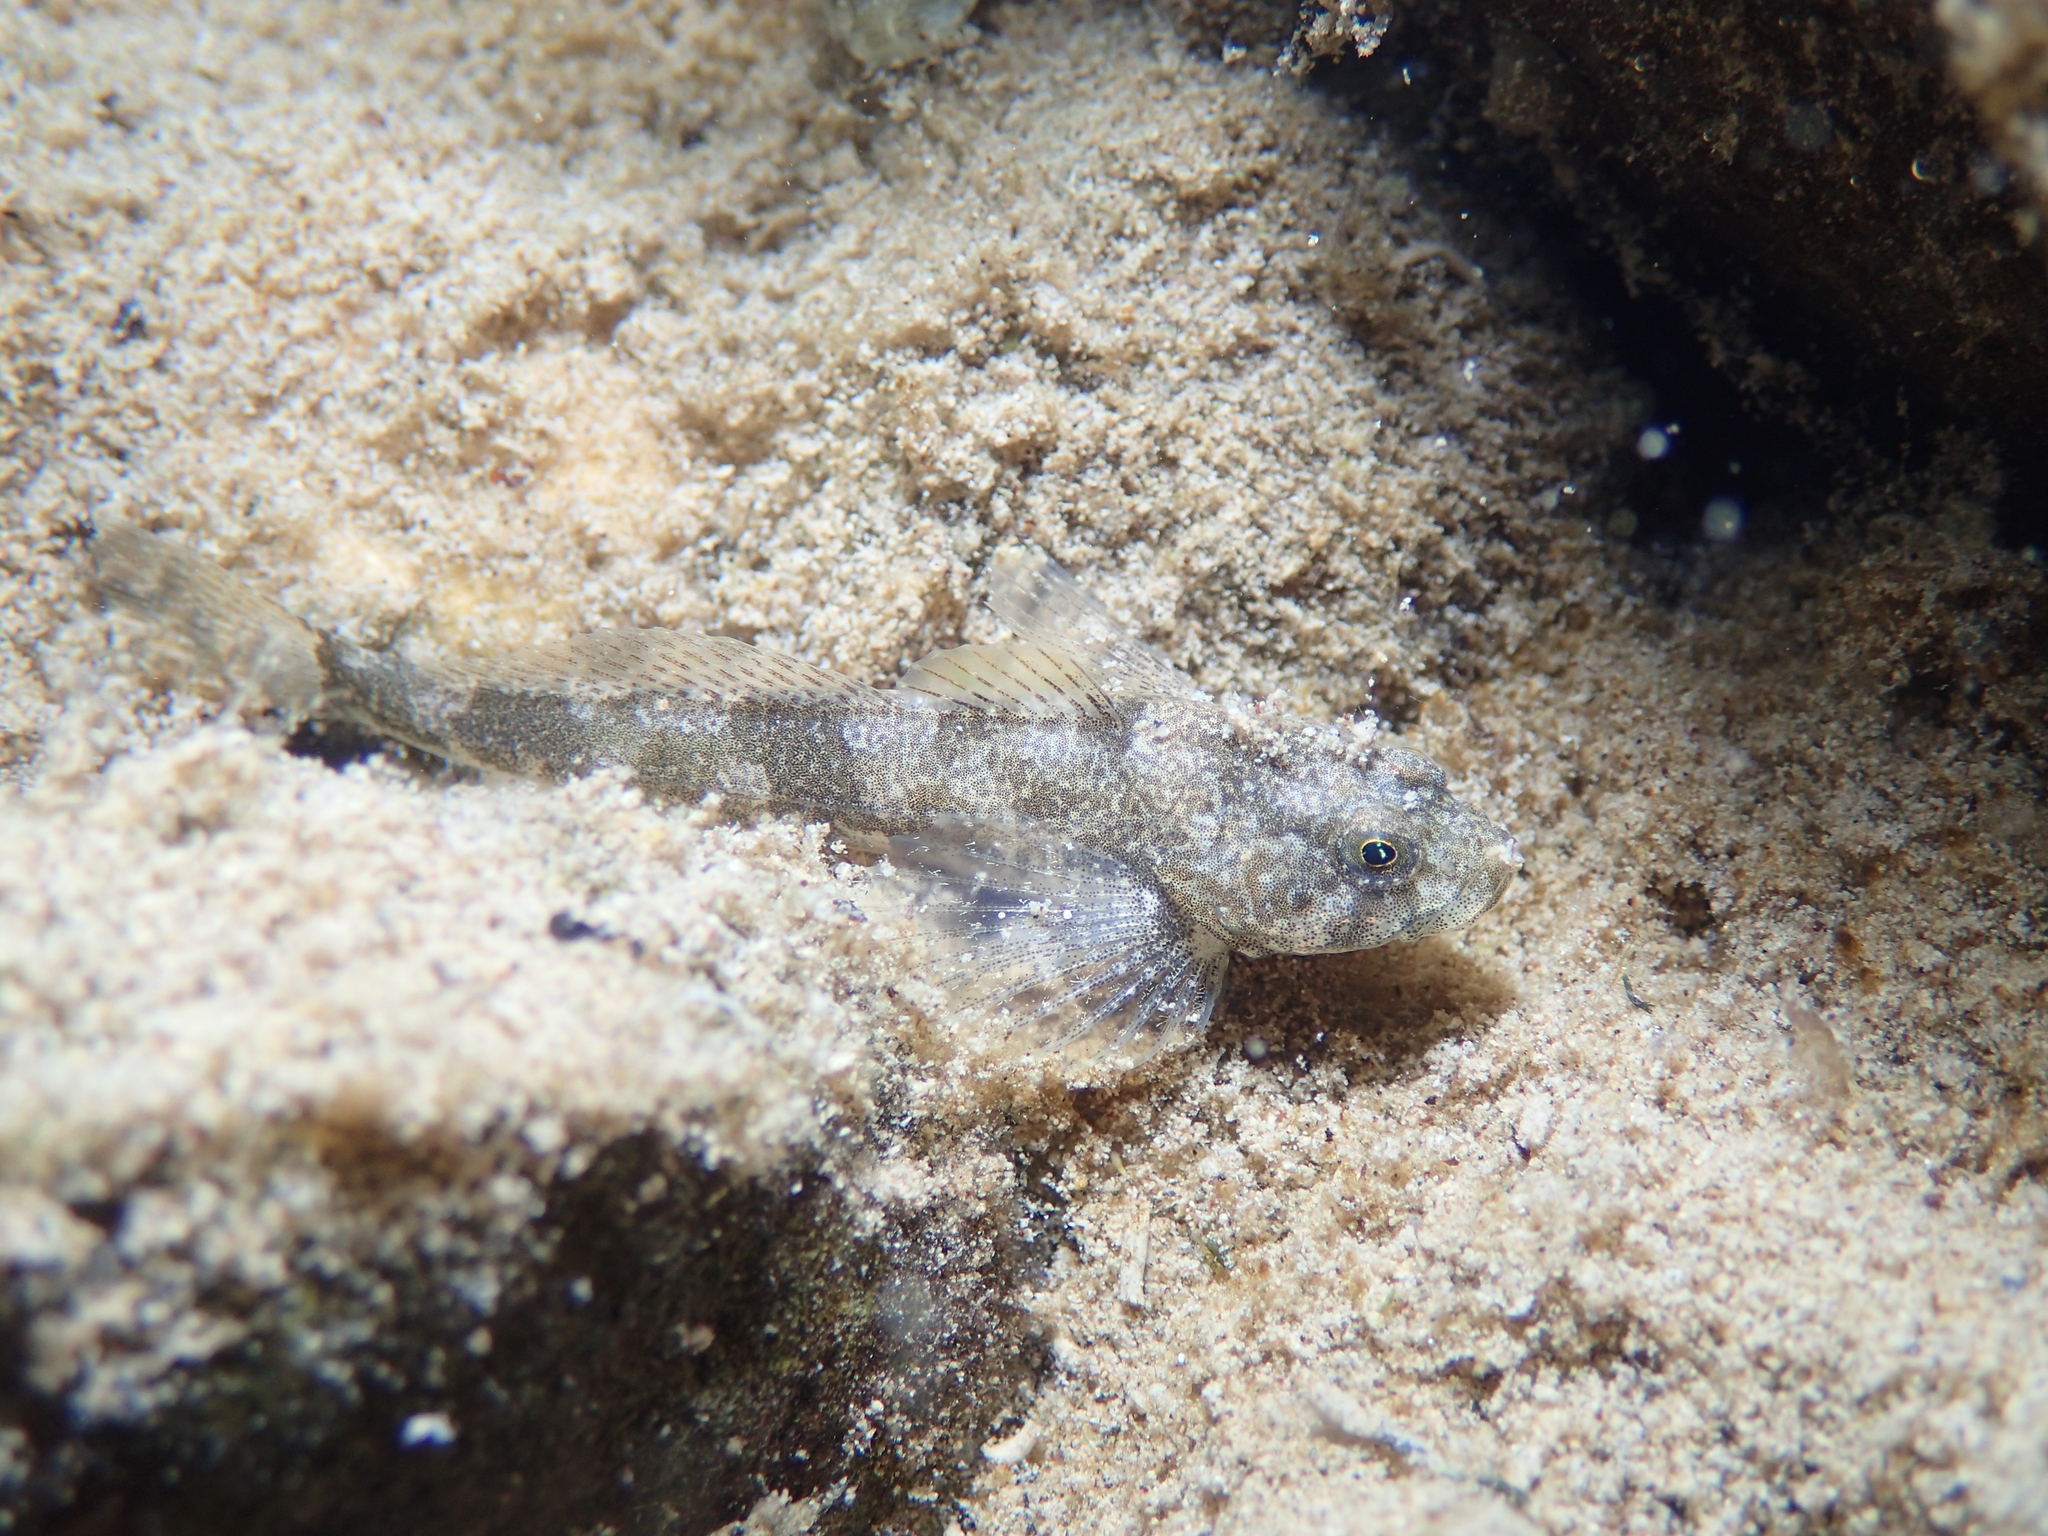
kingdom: Animalia
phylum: Chordata
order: Scorpaeniformes
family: Cottidae
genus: Cottus
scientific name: Cottus sabaudicus
